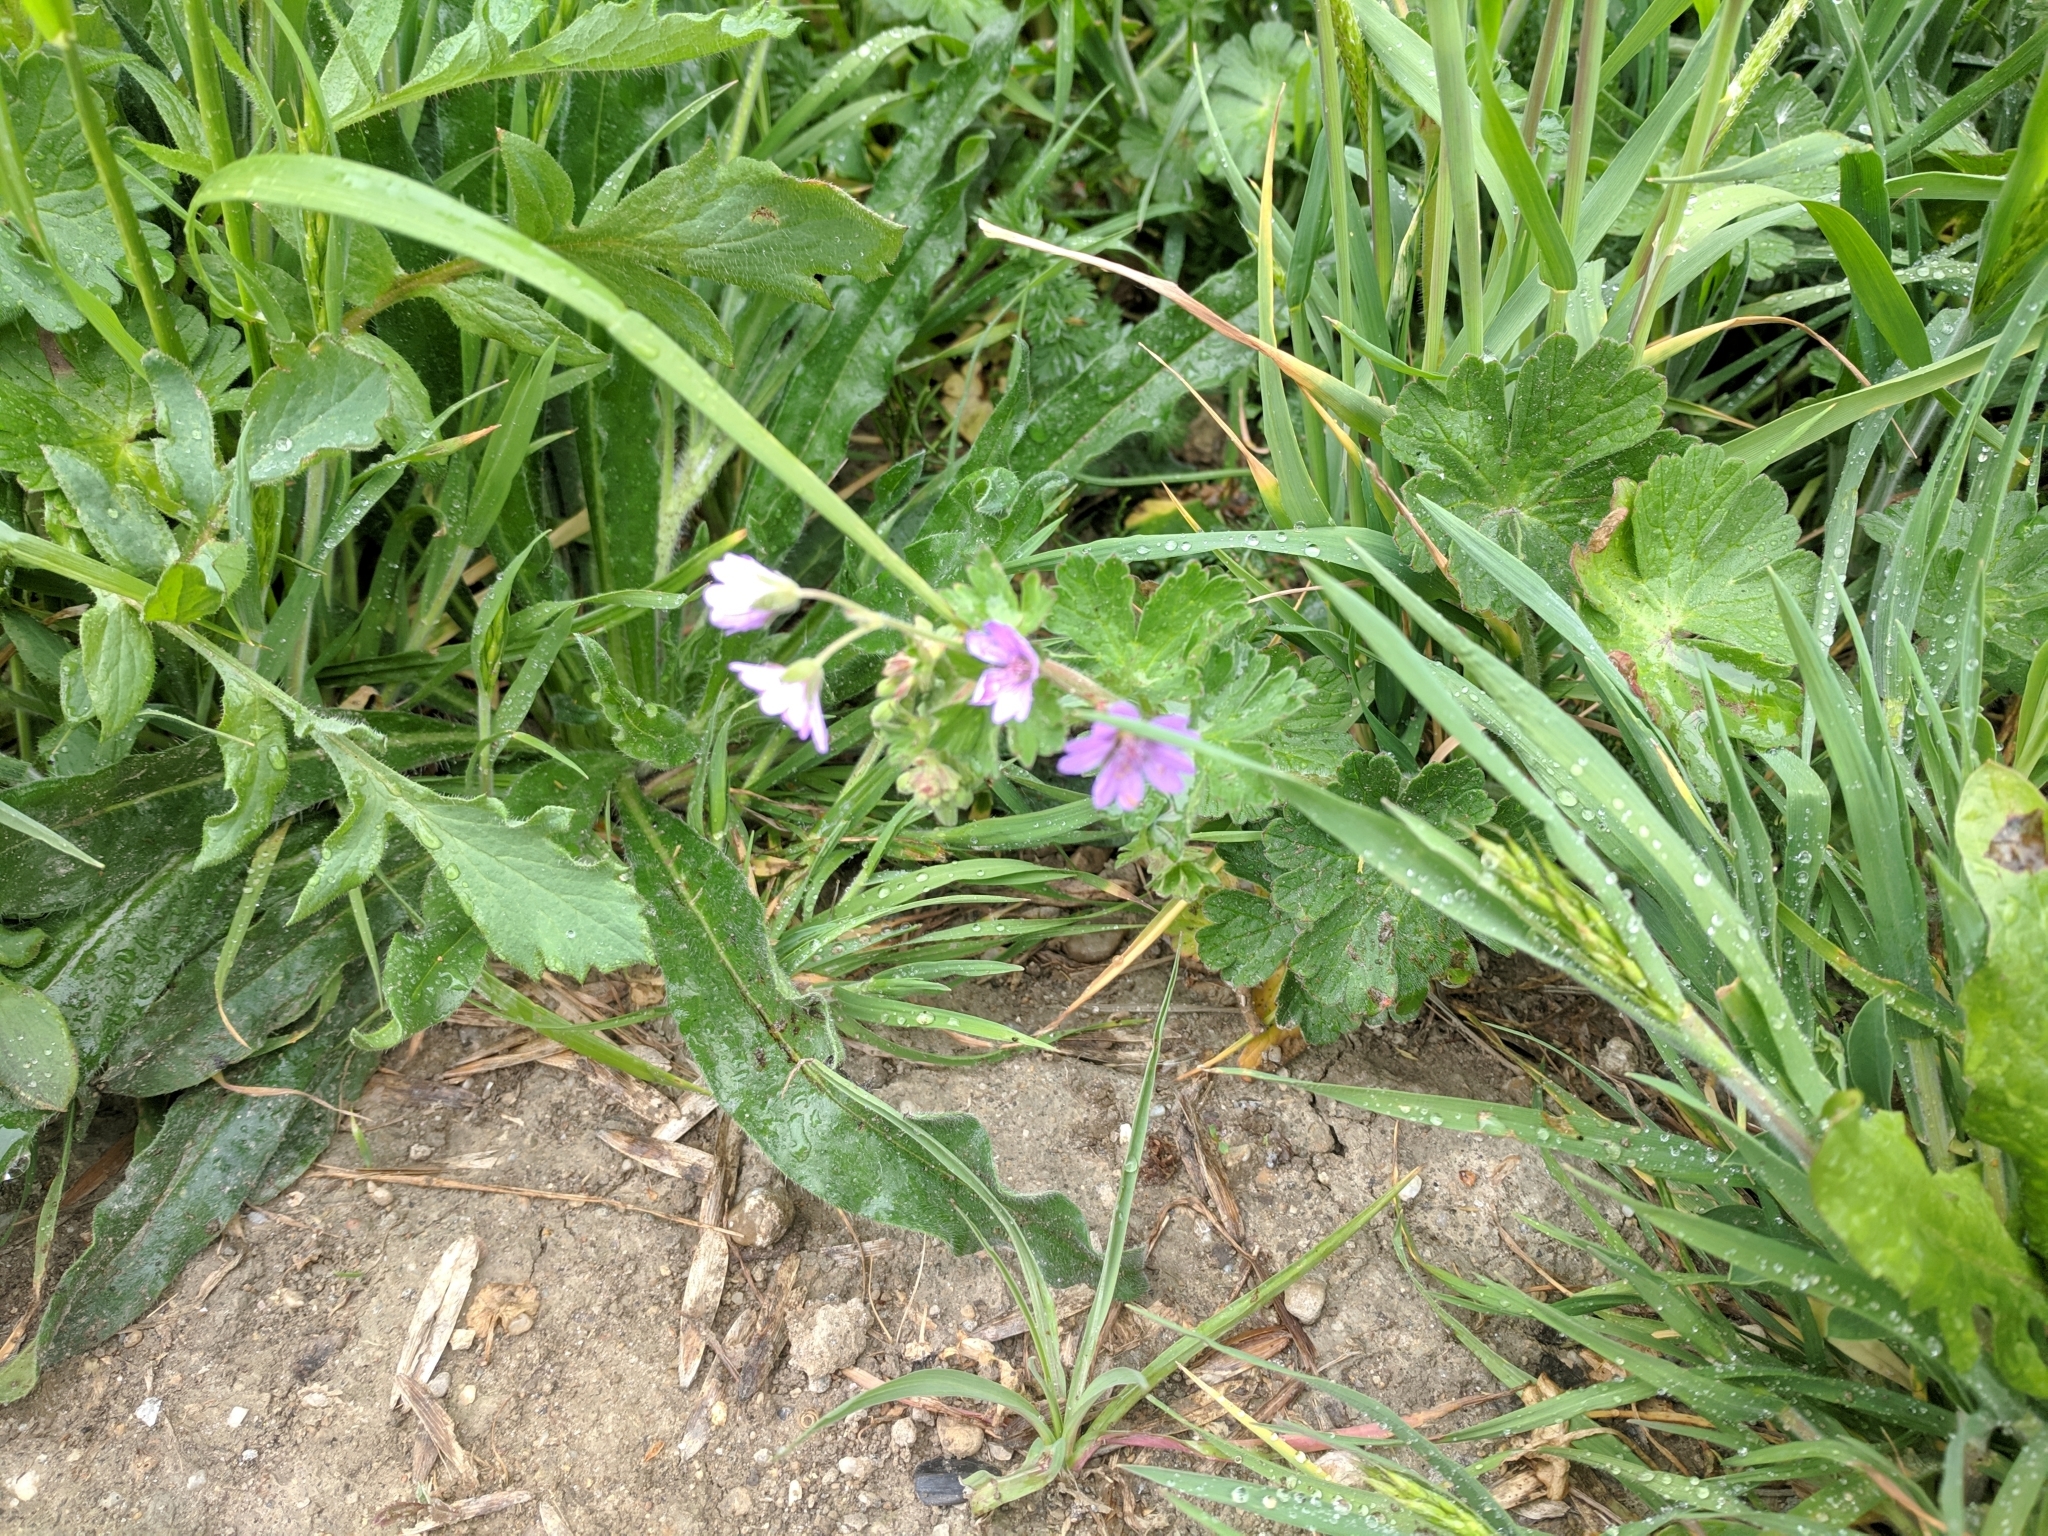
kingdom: Plantae
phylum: Tracheophyta
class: Magnoliopsida
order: Geraniales
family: Geraniaceae
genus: Geranium
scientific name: Geranium pyrenaicum
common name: Hedgerow crane's-bill
